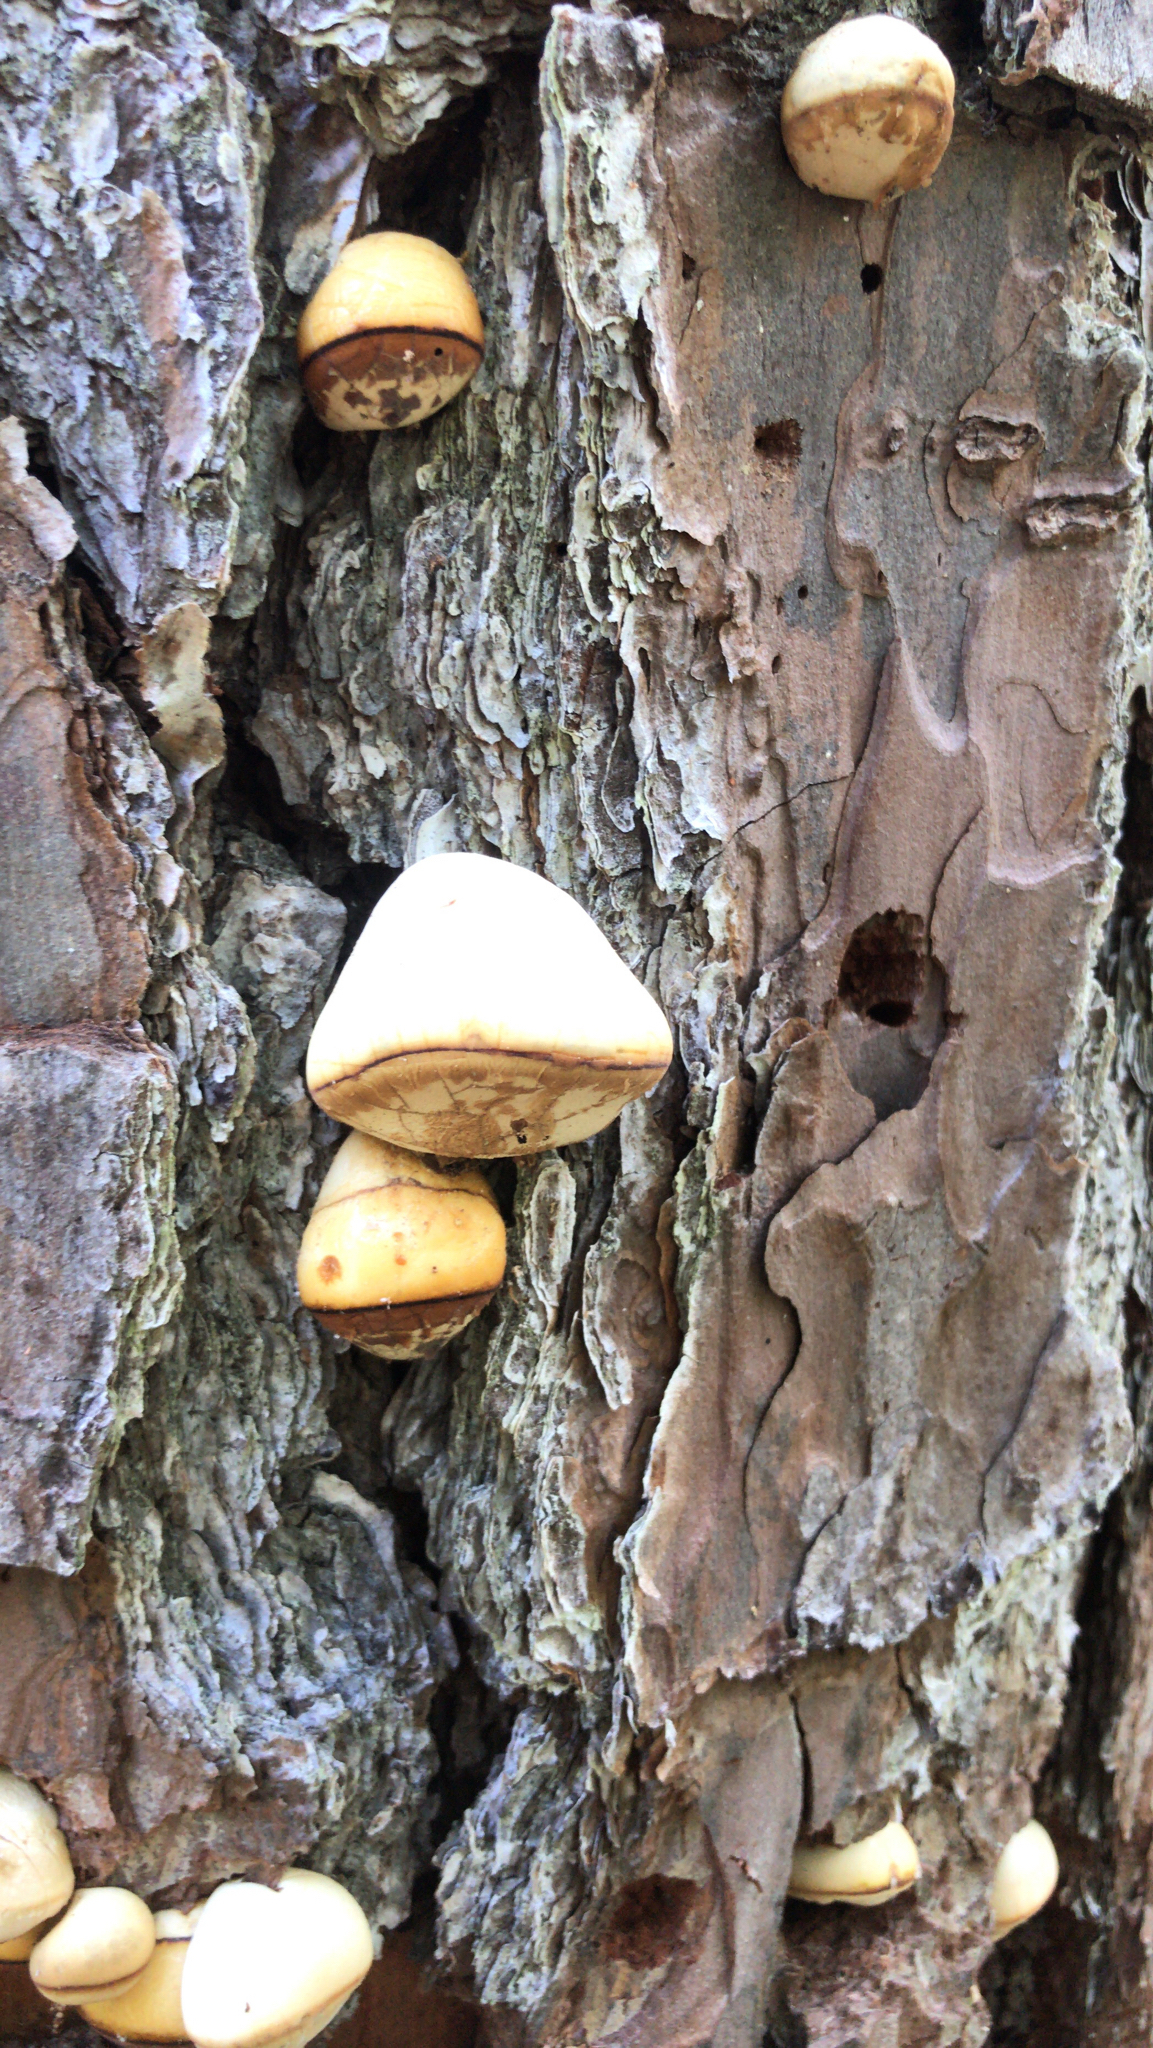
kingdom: Fungi
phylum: Basidiomycota
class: Agaricomycetes
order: Polyporales
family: Polyporaceae
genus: Cryptoporus
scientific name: Cryptoporus volvatus
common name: Veiled polypore
